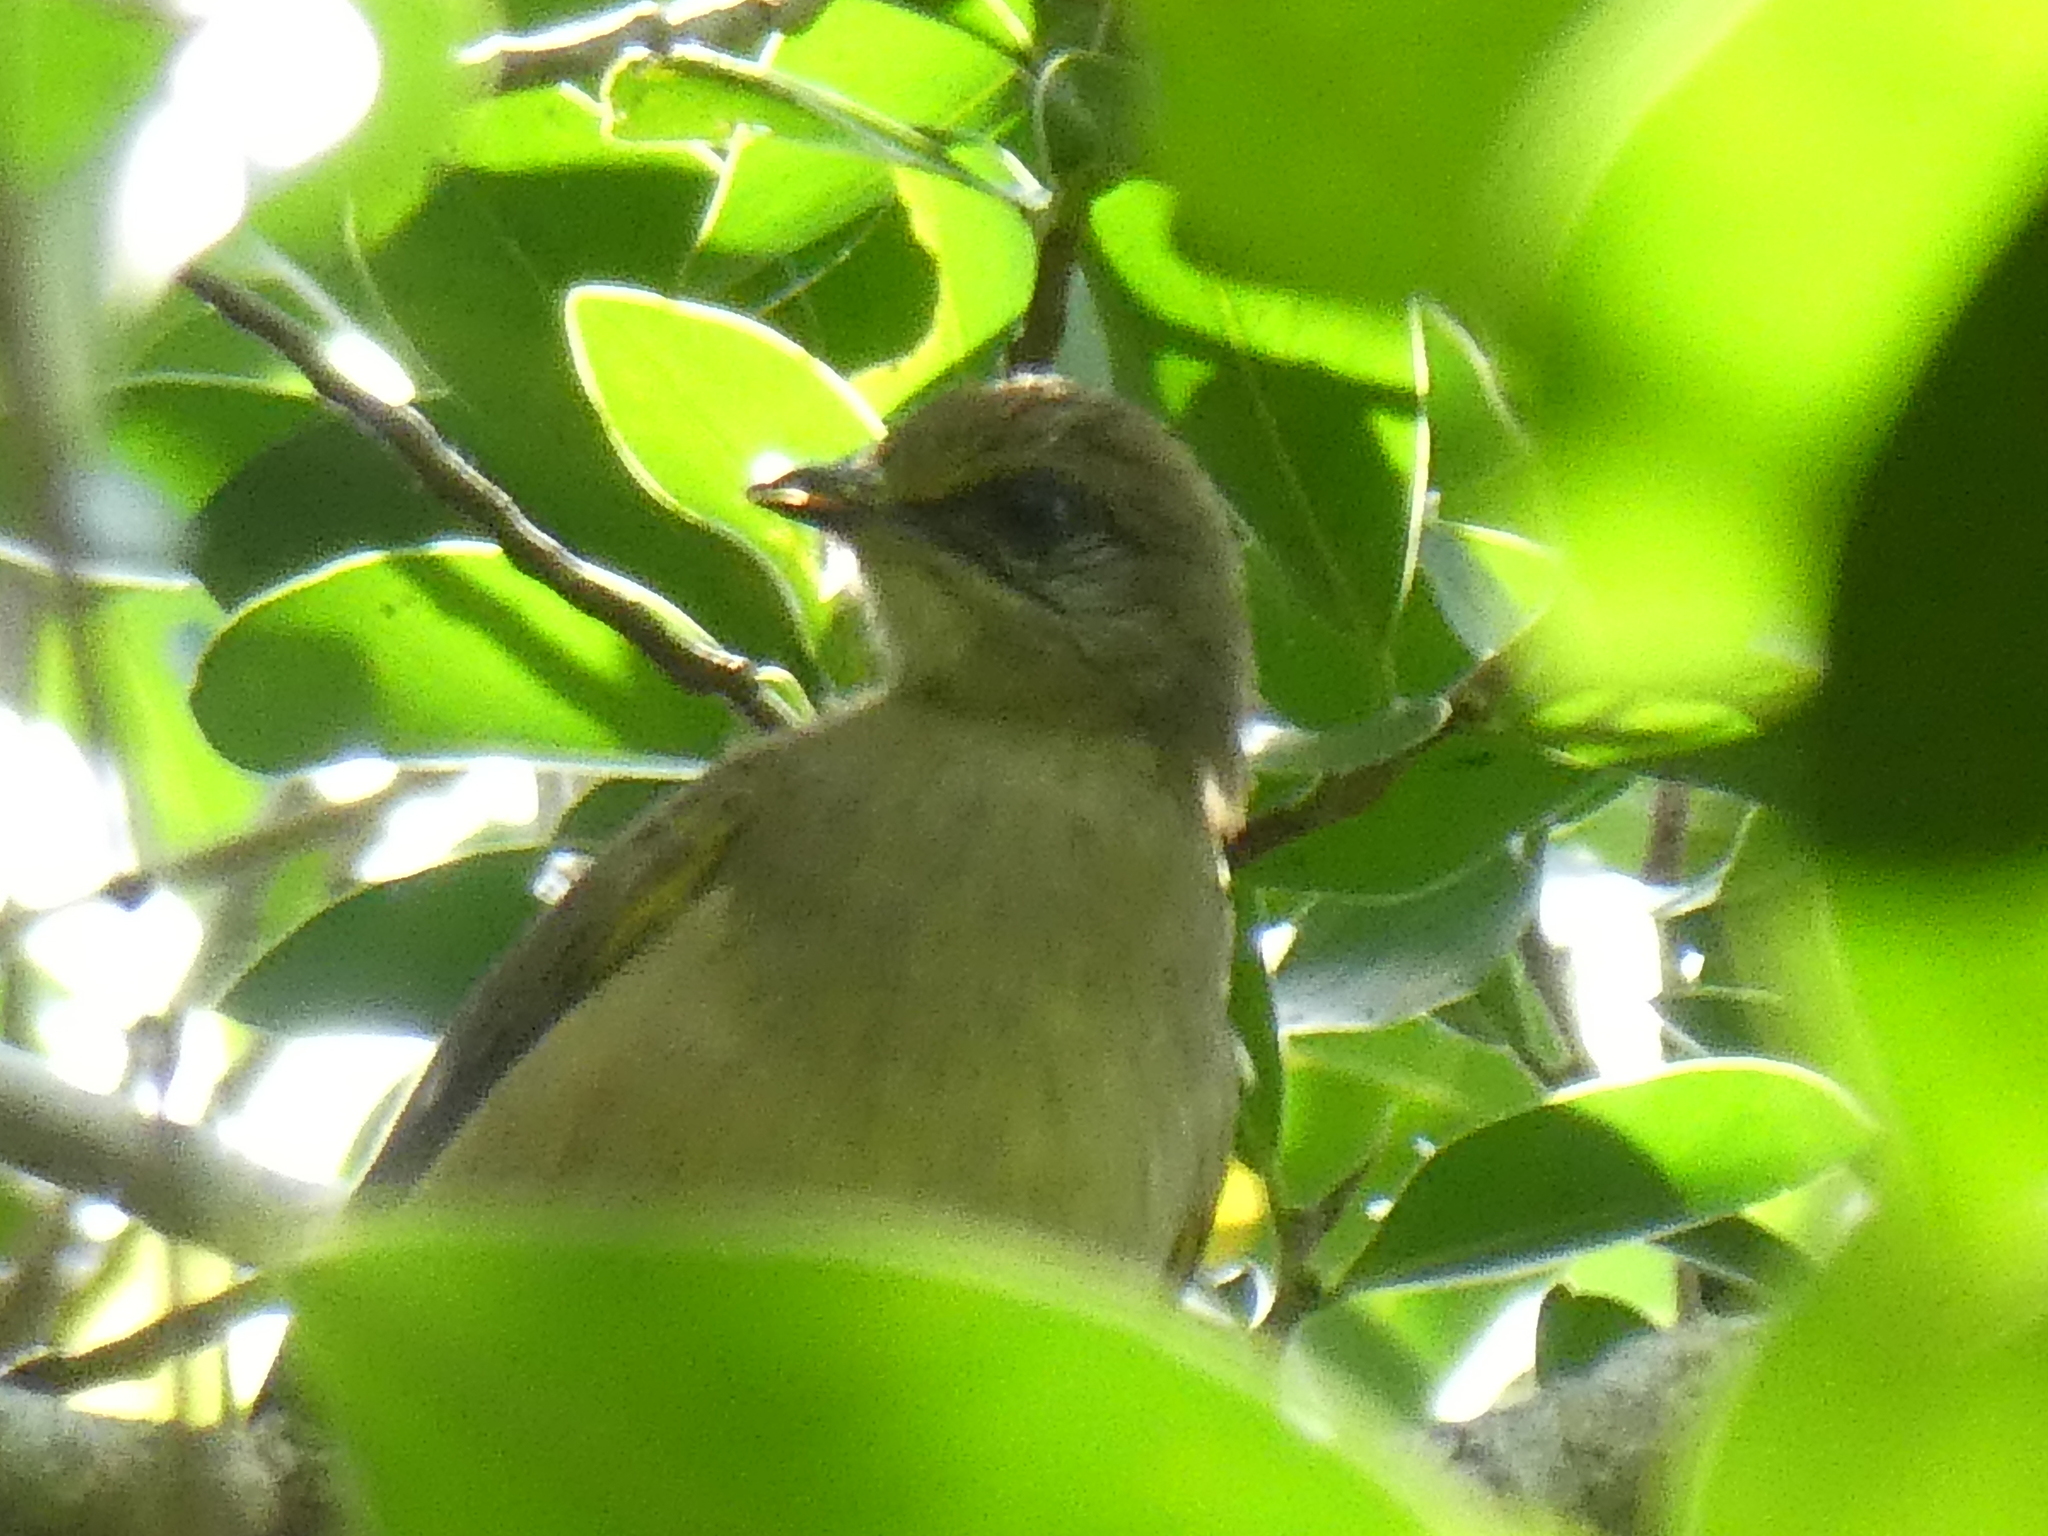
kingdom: Animalia
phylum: Chordata
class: Aves
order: Passeriformes
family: Pycnonotidae
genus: Pycnonotus
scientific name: Pycnonotus blanfordi
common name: Streak-eared bulbul
